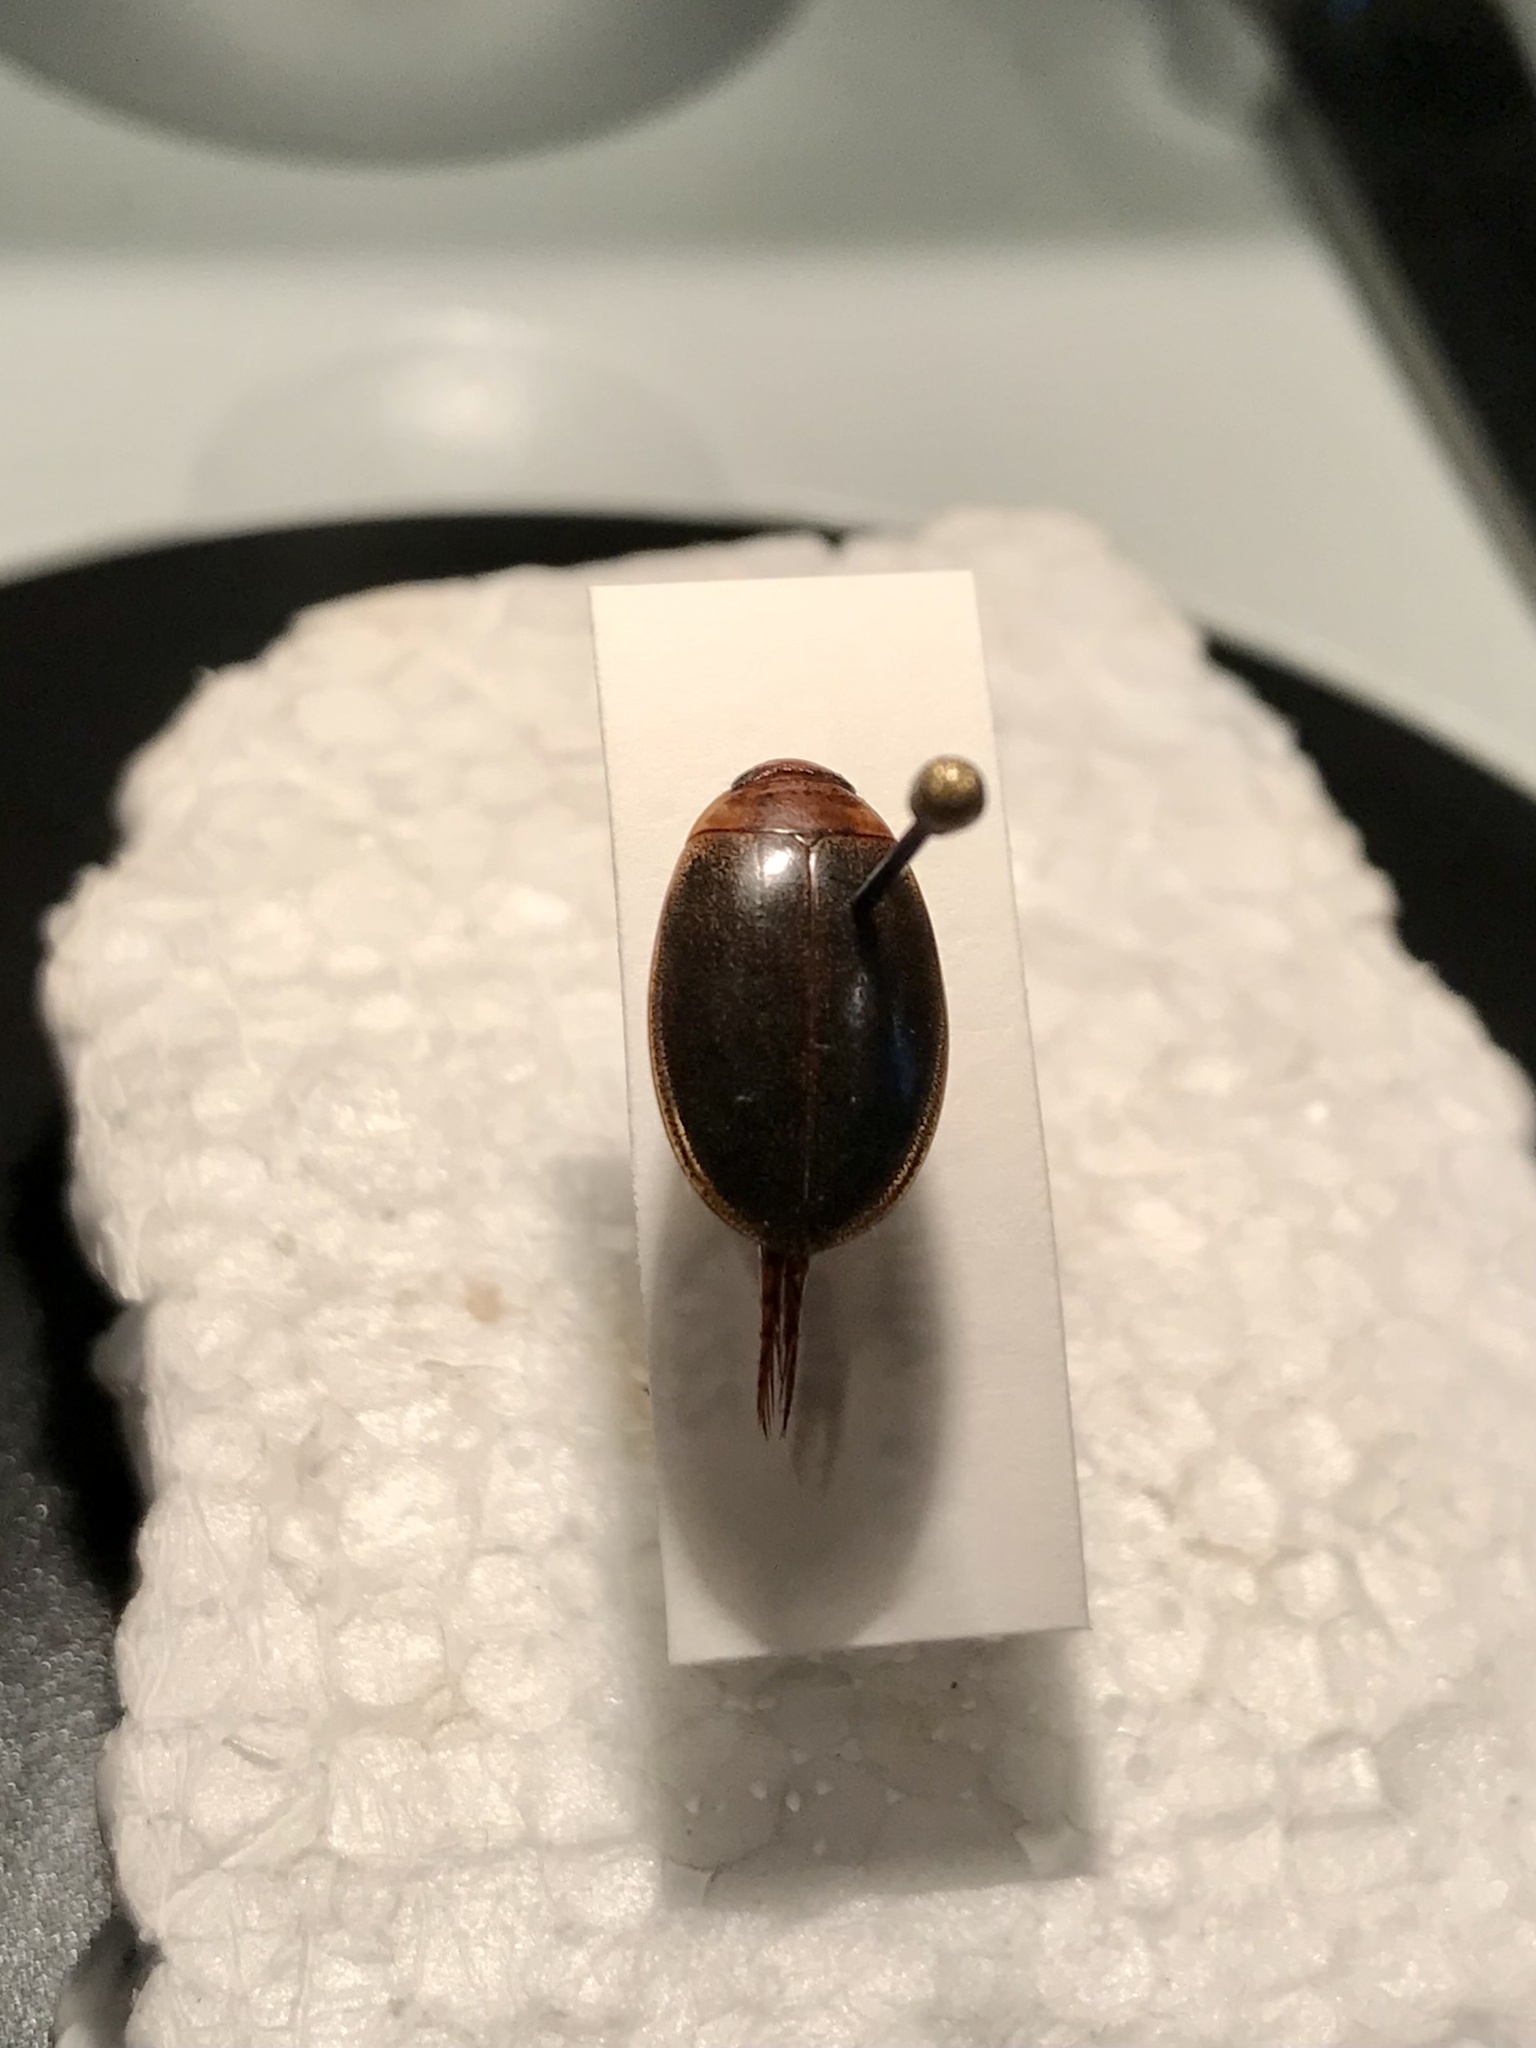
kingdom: Animalia
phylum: Arthropoda
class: Insecta
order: Coleoptera
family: Dytiscidae
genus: Graphoderus
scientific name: Graphoderus liberus
